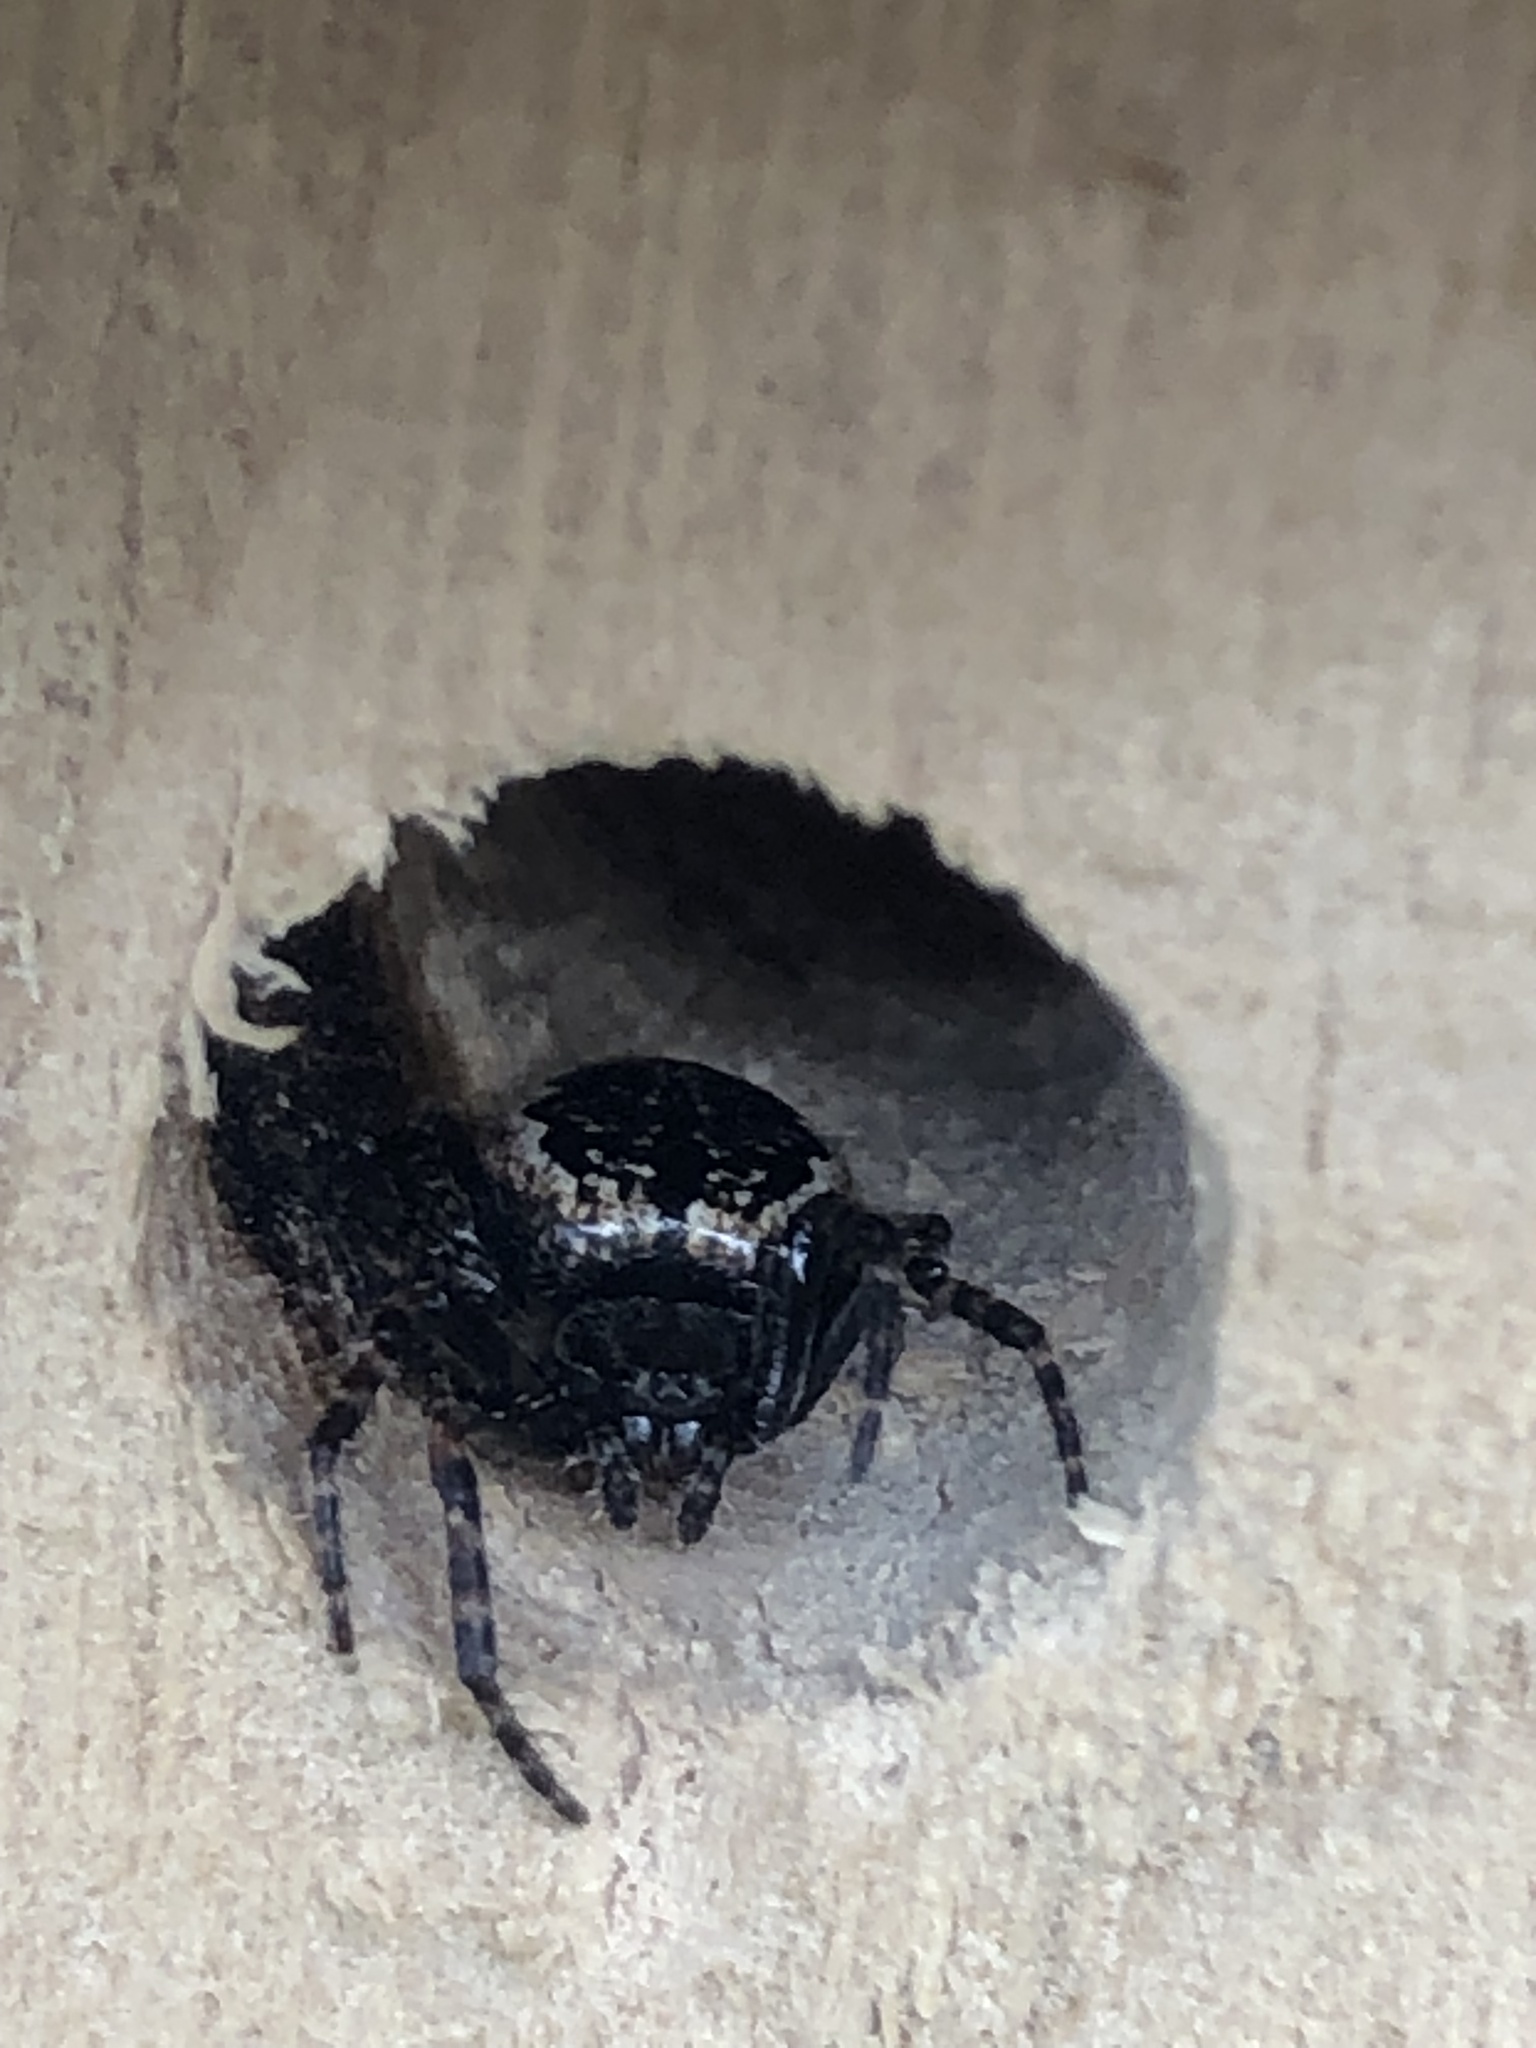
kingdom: Animalia
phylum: Arthropoda
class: Arachnida
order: Araneae
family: Araneidae
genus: Nuctenea
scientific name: Nuctenea umbratica
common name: Toad spider
